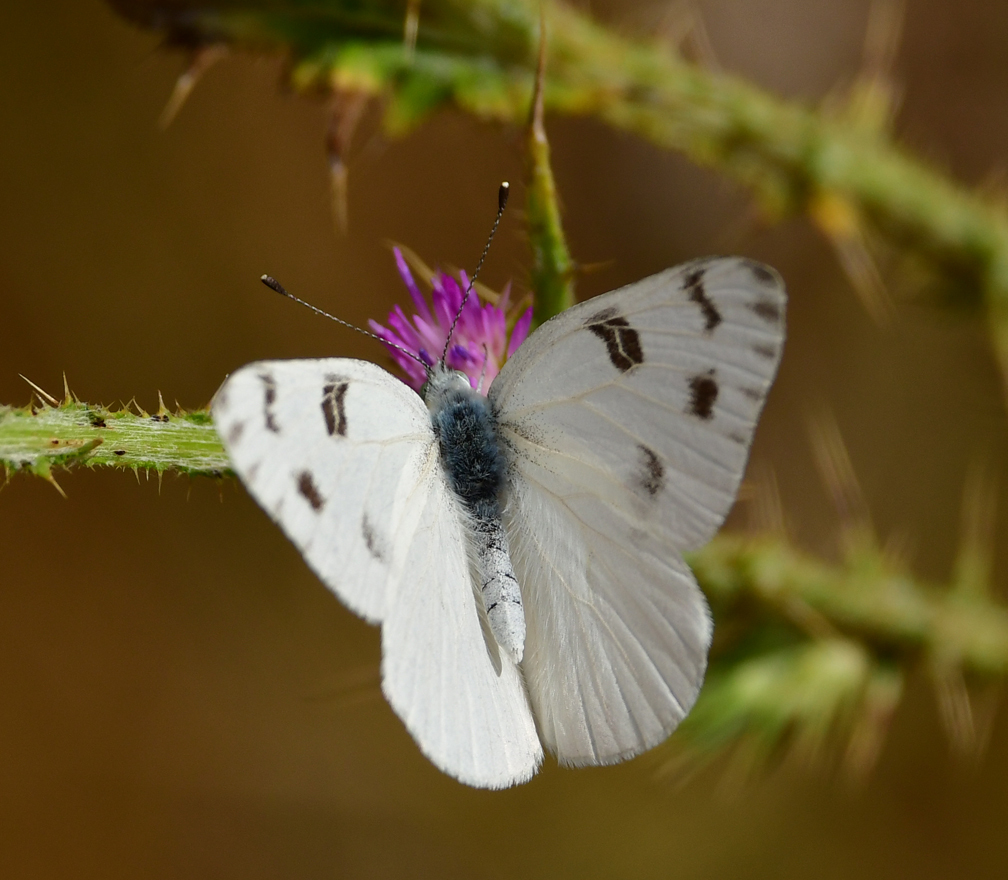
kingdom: Animalia
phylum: Arthropoda
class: Insecta
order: Lepidoptera
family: Pieridae
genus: Pontia
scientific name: Pontia protodice
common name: Checkered white
